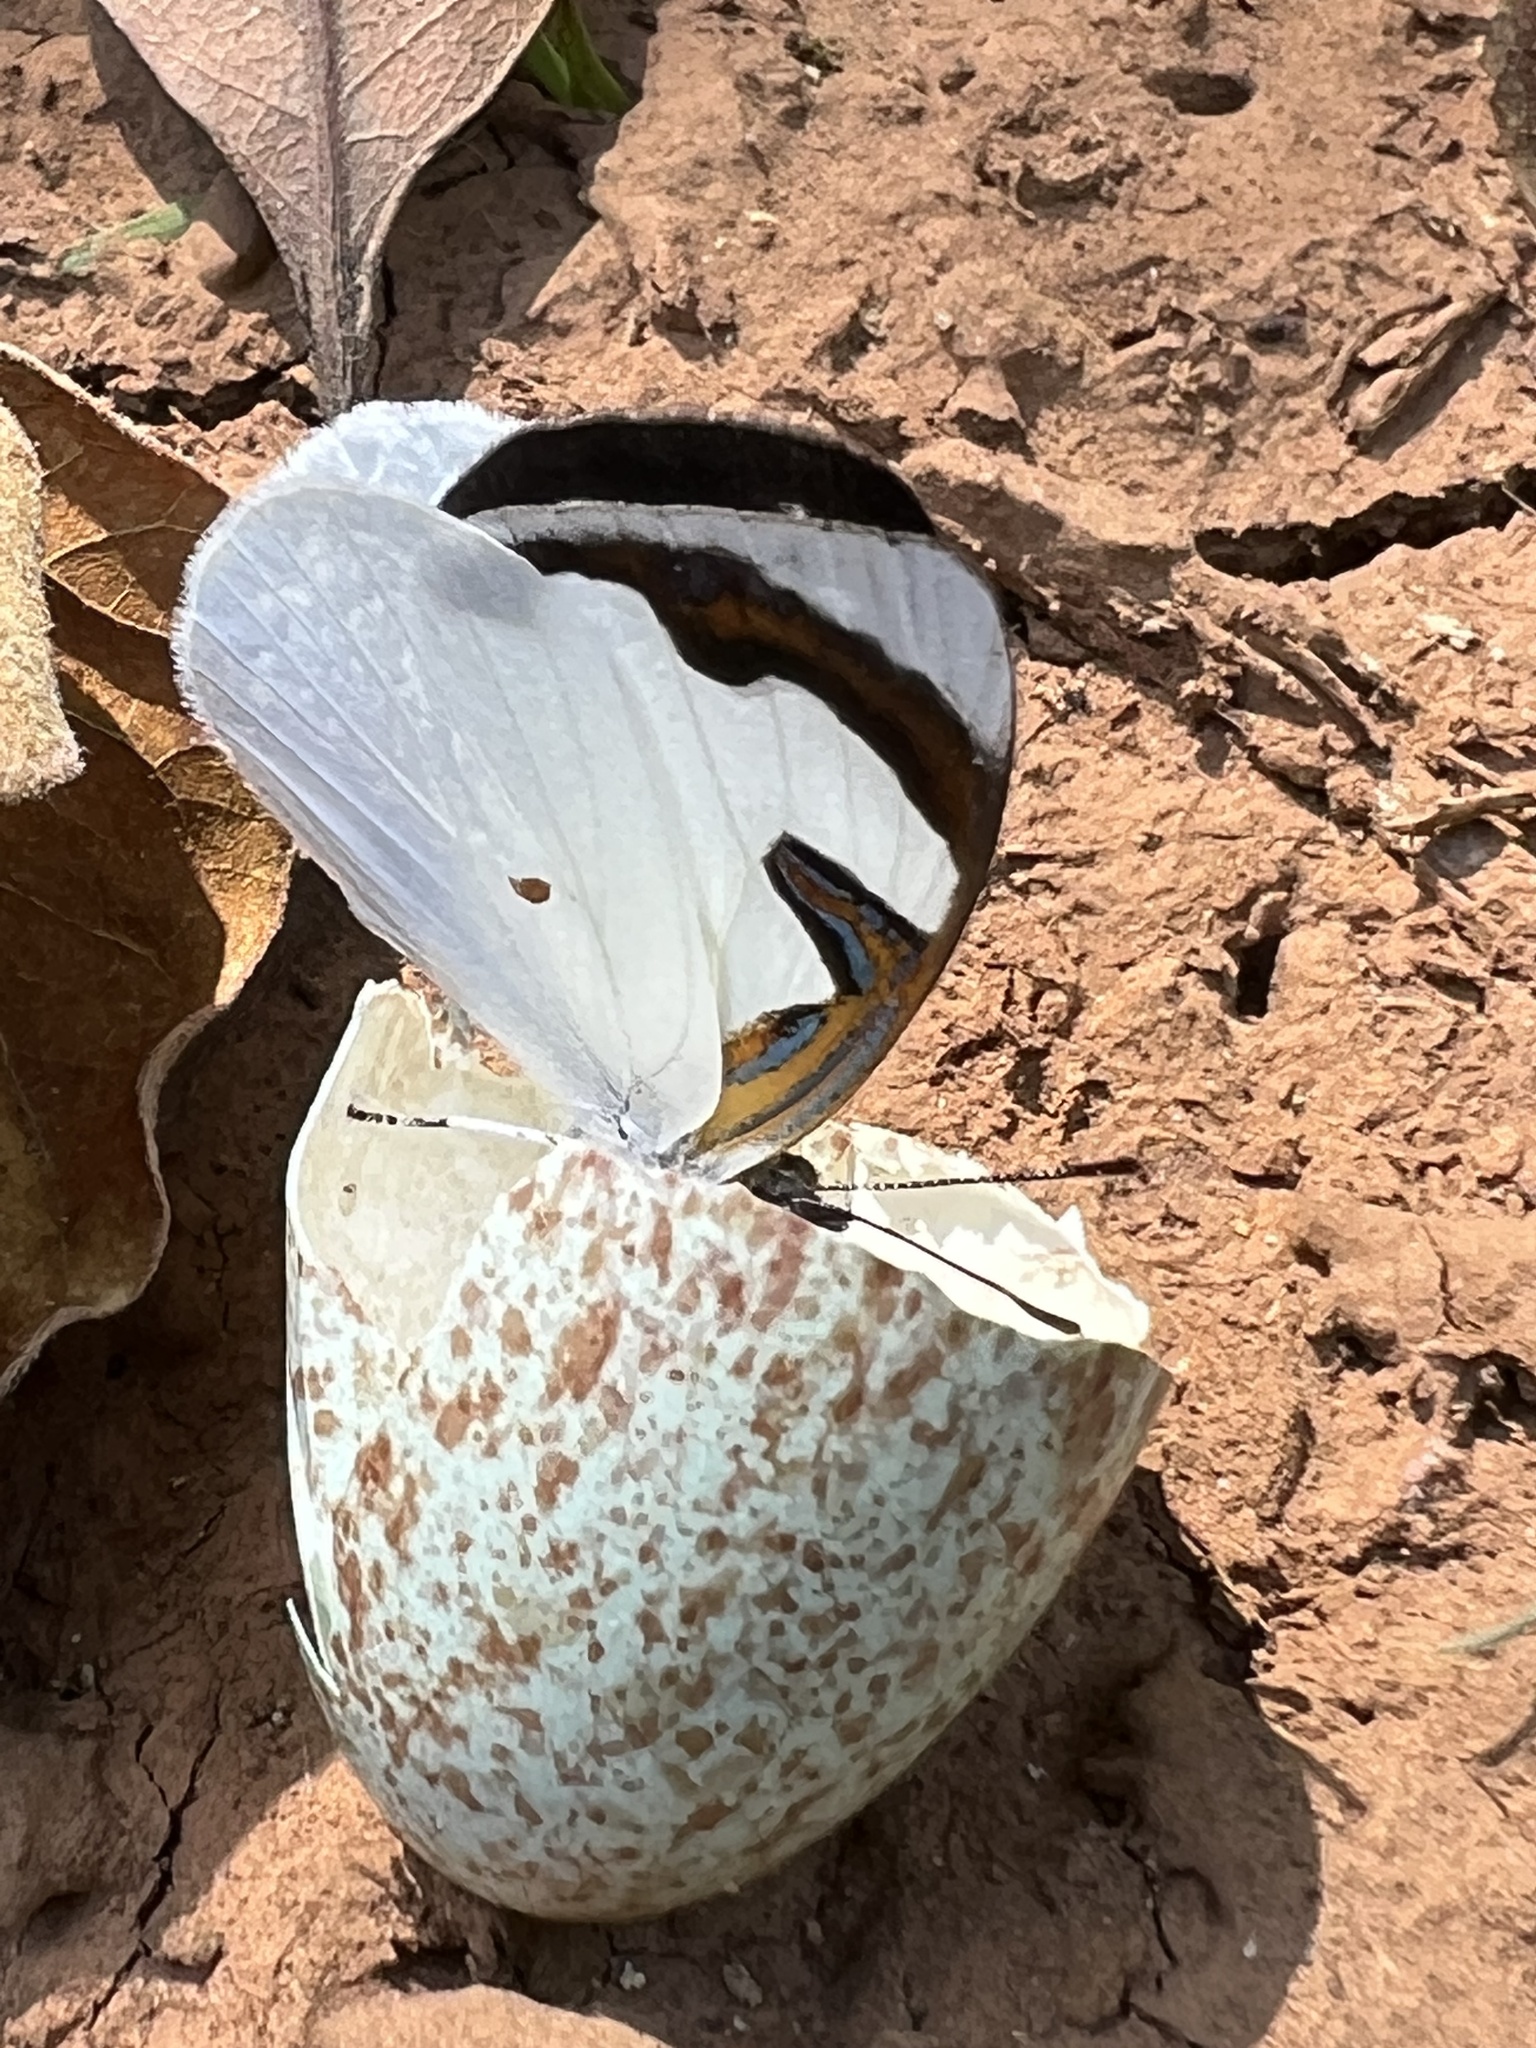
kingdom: Animalia
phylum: Arthropoda
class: Insecta
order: Lepidoptera
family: Nymphalidae
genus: Dynamine
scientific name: Dynamine myrrhina
